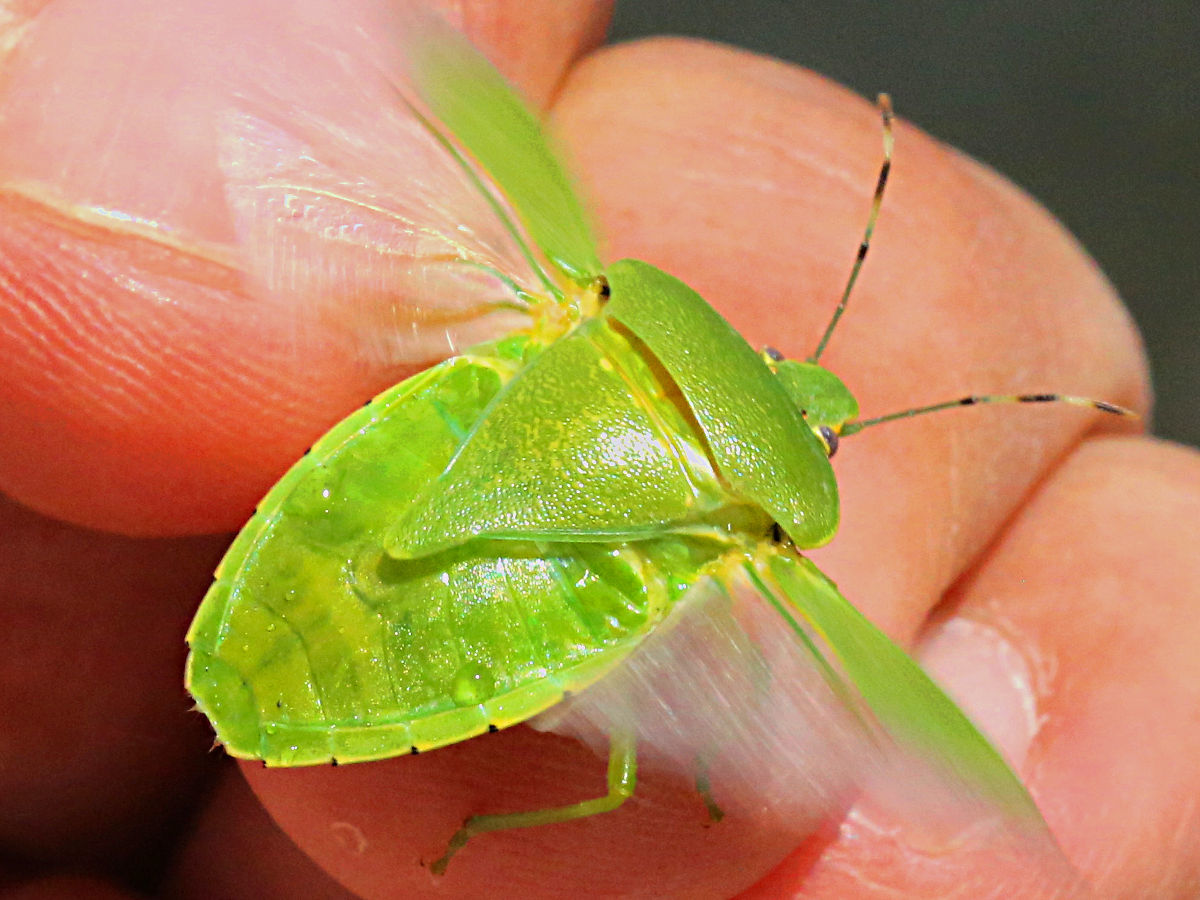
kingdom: Animalia
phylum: Arthropoda
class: Insecta
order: Hemiptera
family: Pentatomidae
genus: Chinavia
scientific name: Chinavia hilaris
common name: Green stink bug
